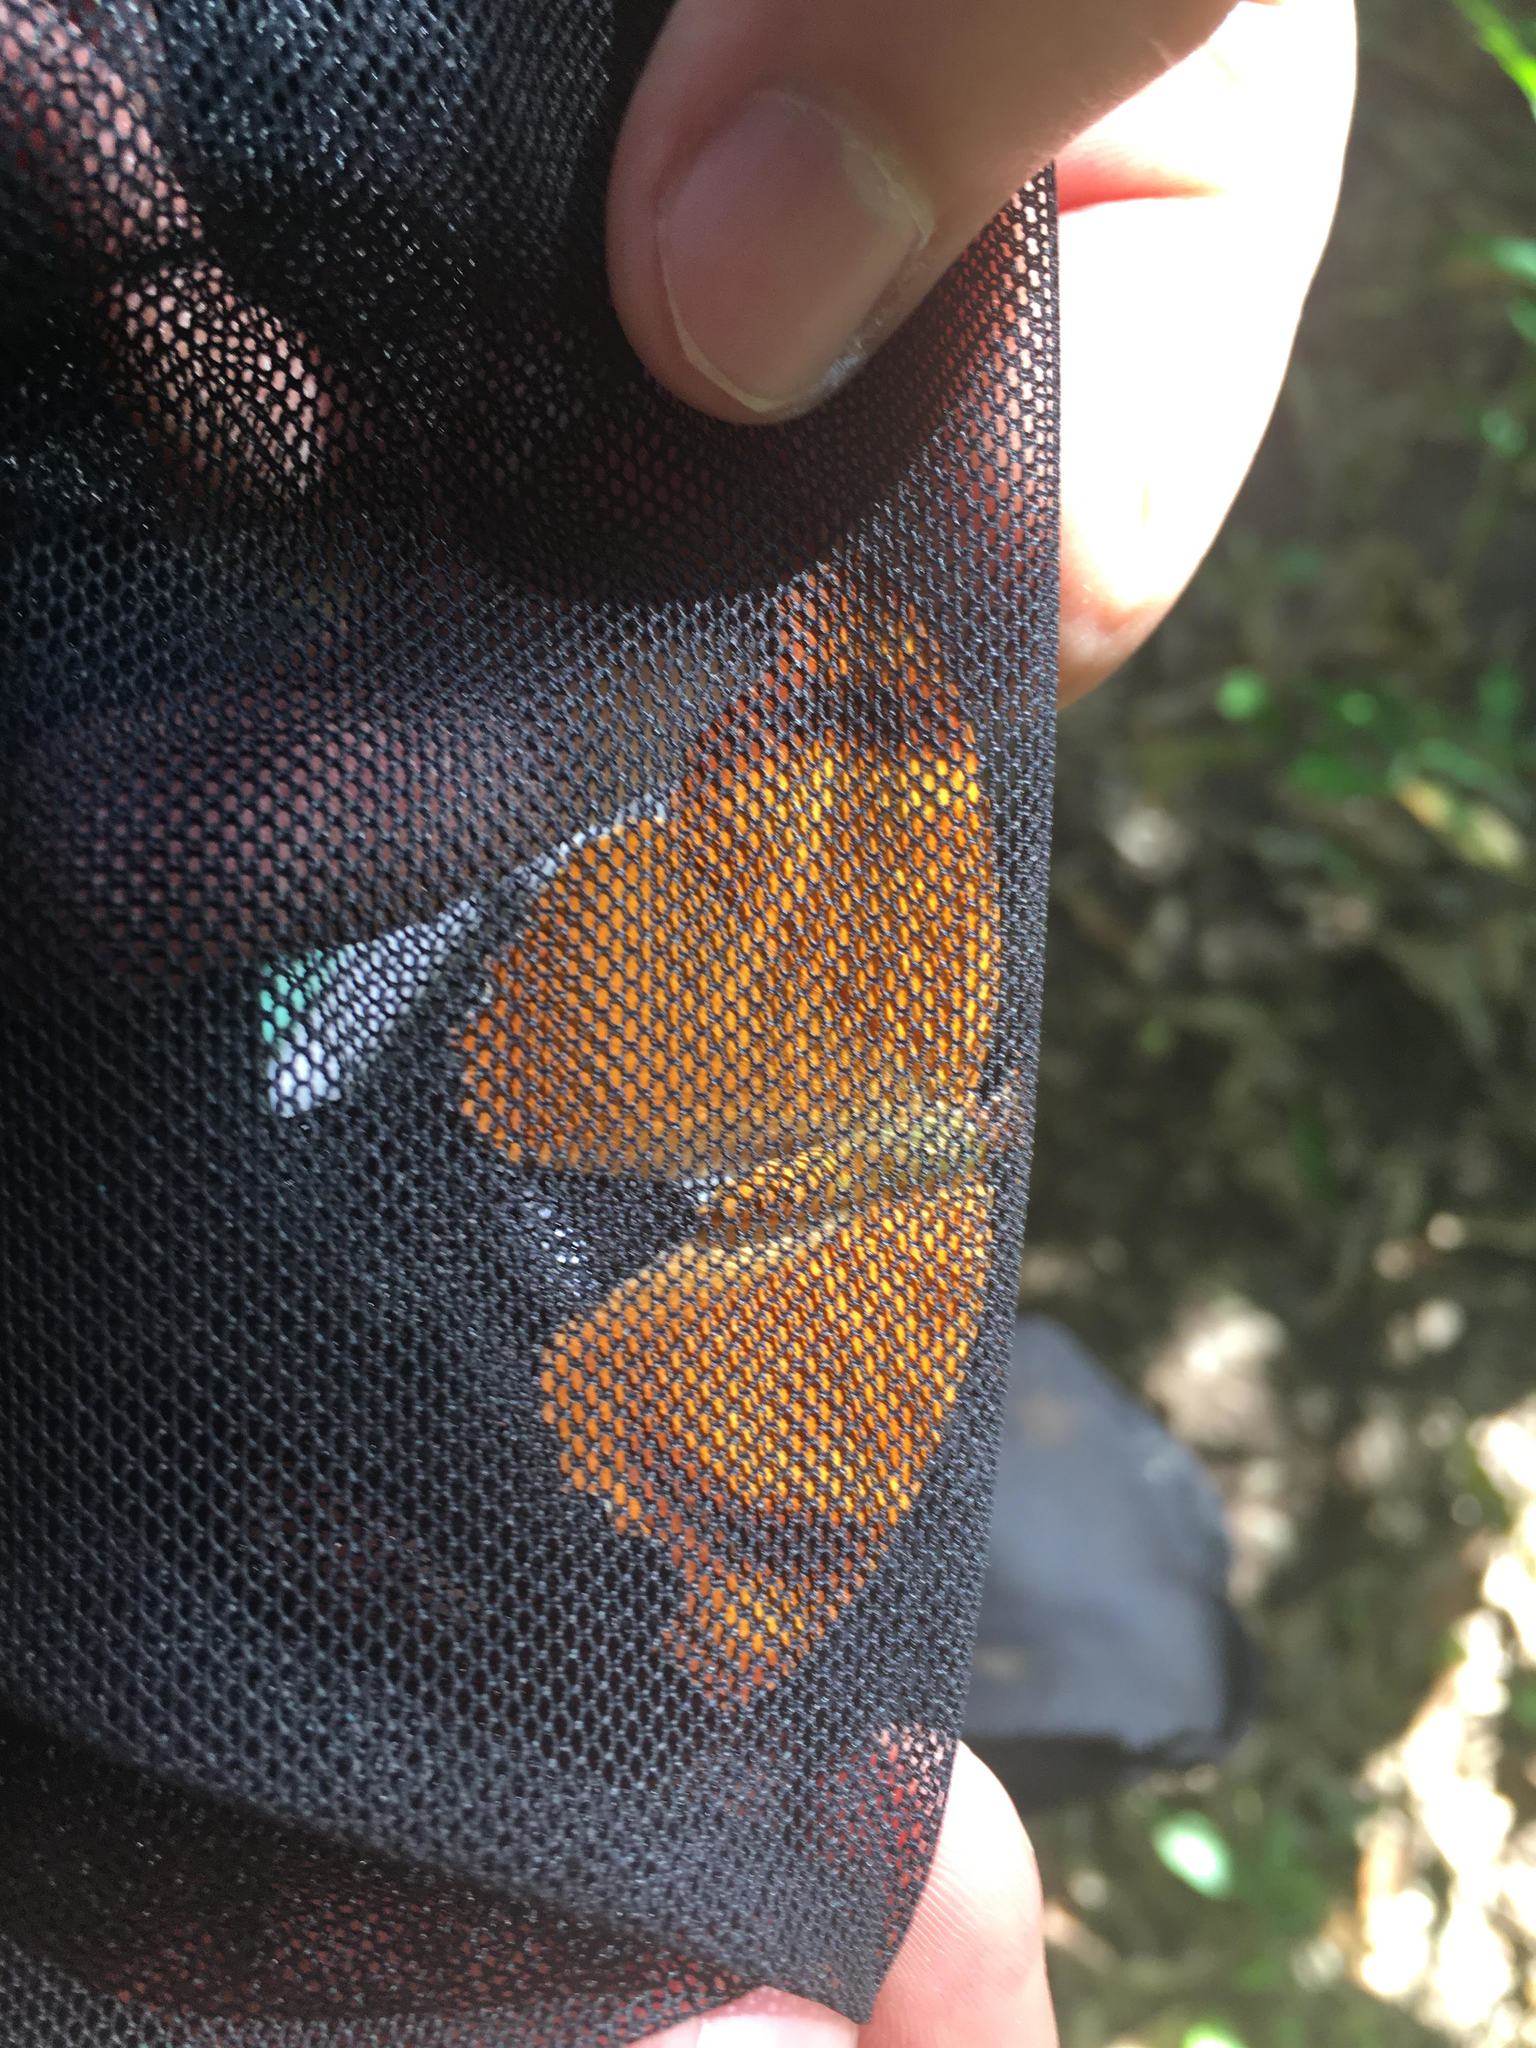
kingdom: Animalia
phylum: Arthropoda
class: Insecta
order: Lepidoptera
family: Nymphalidae
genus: Temenis
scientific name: Temenis laothoe
